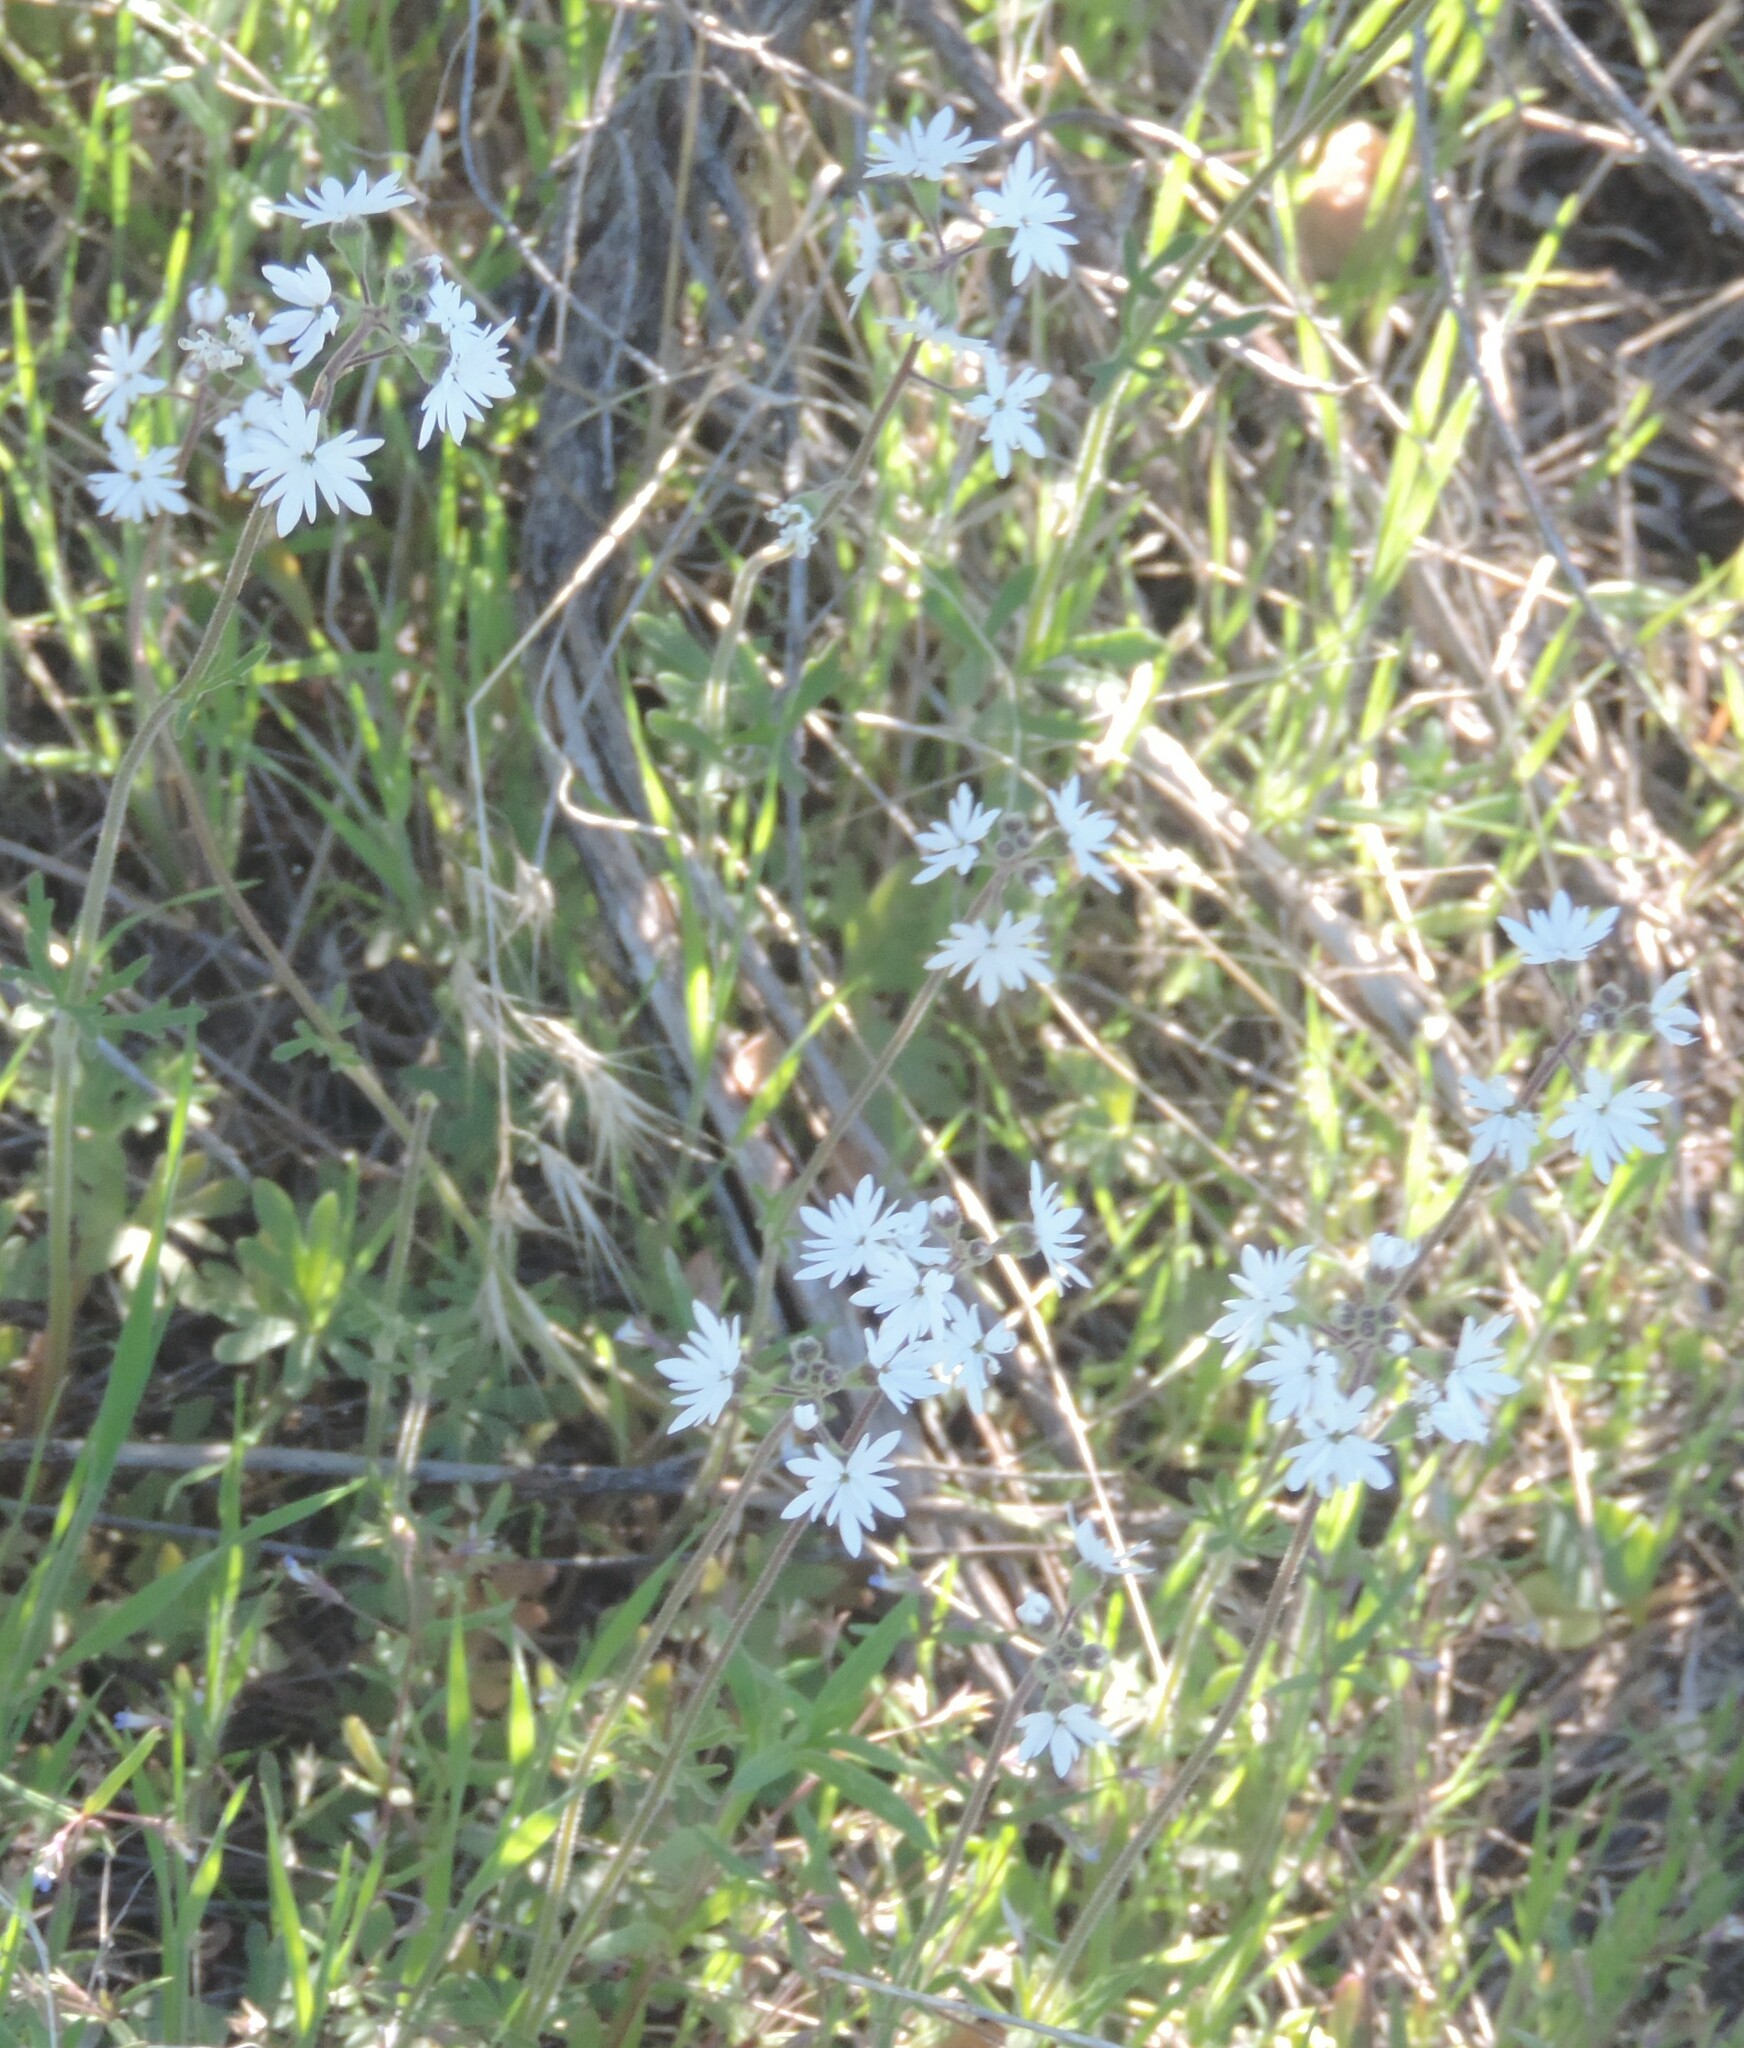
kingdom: Plantae
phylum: Tracheophyta
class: Magnoliopsida
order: Saxifragales
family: Saxifragaceae
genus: Lithophragma
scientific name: Lithophragma parviflorum
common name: Small-flowered fringe-cup
